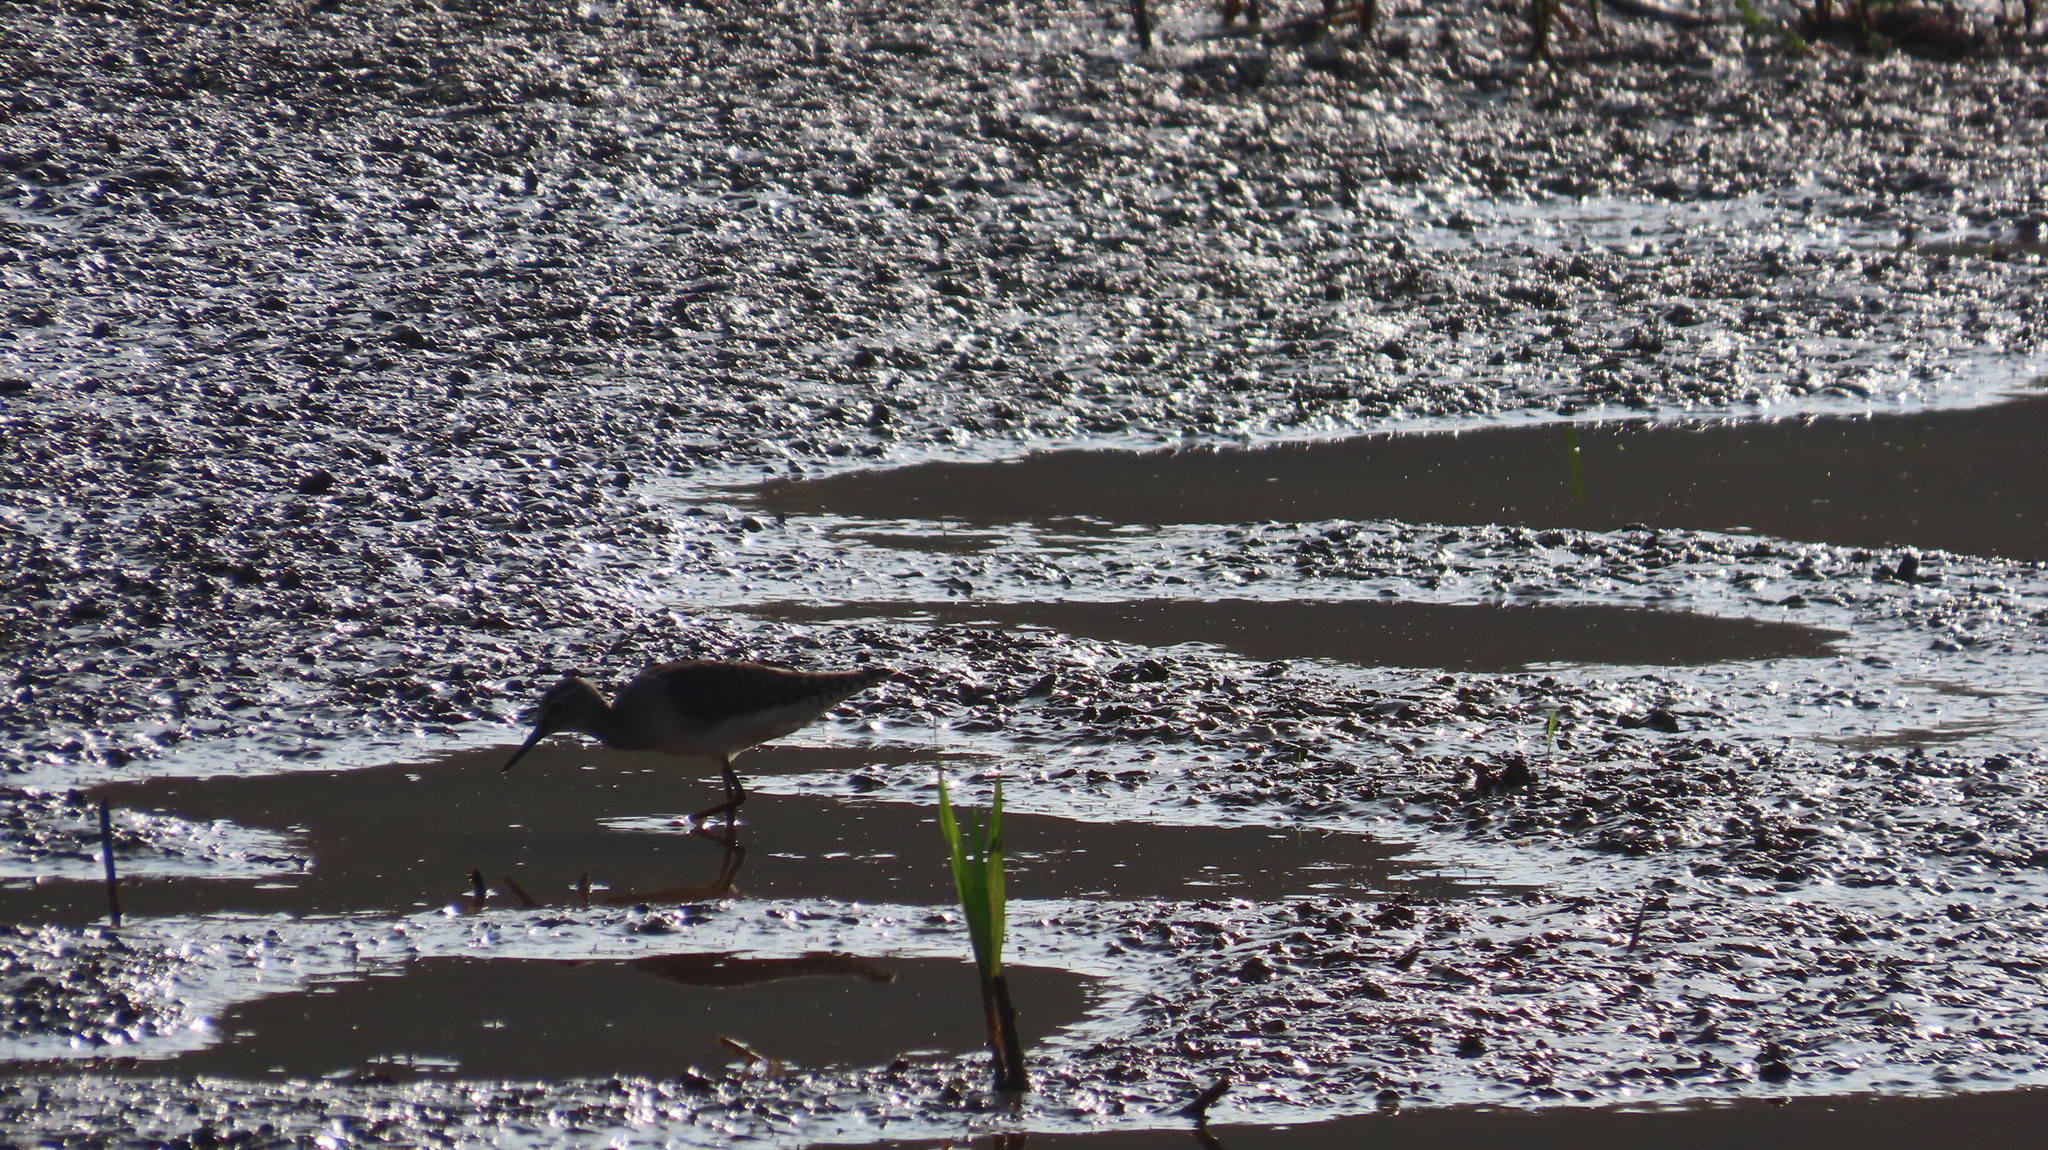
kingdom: Animalia
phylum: Chordata
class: Aves
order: Charadriiformes
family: Scolopacidae
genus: Tringa
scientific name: Tringa glareola
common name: Wood sandpiper
